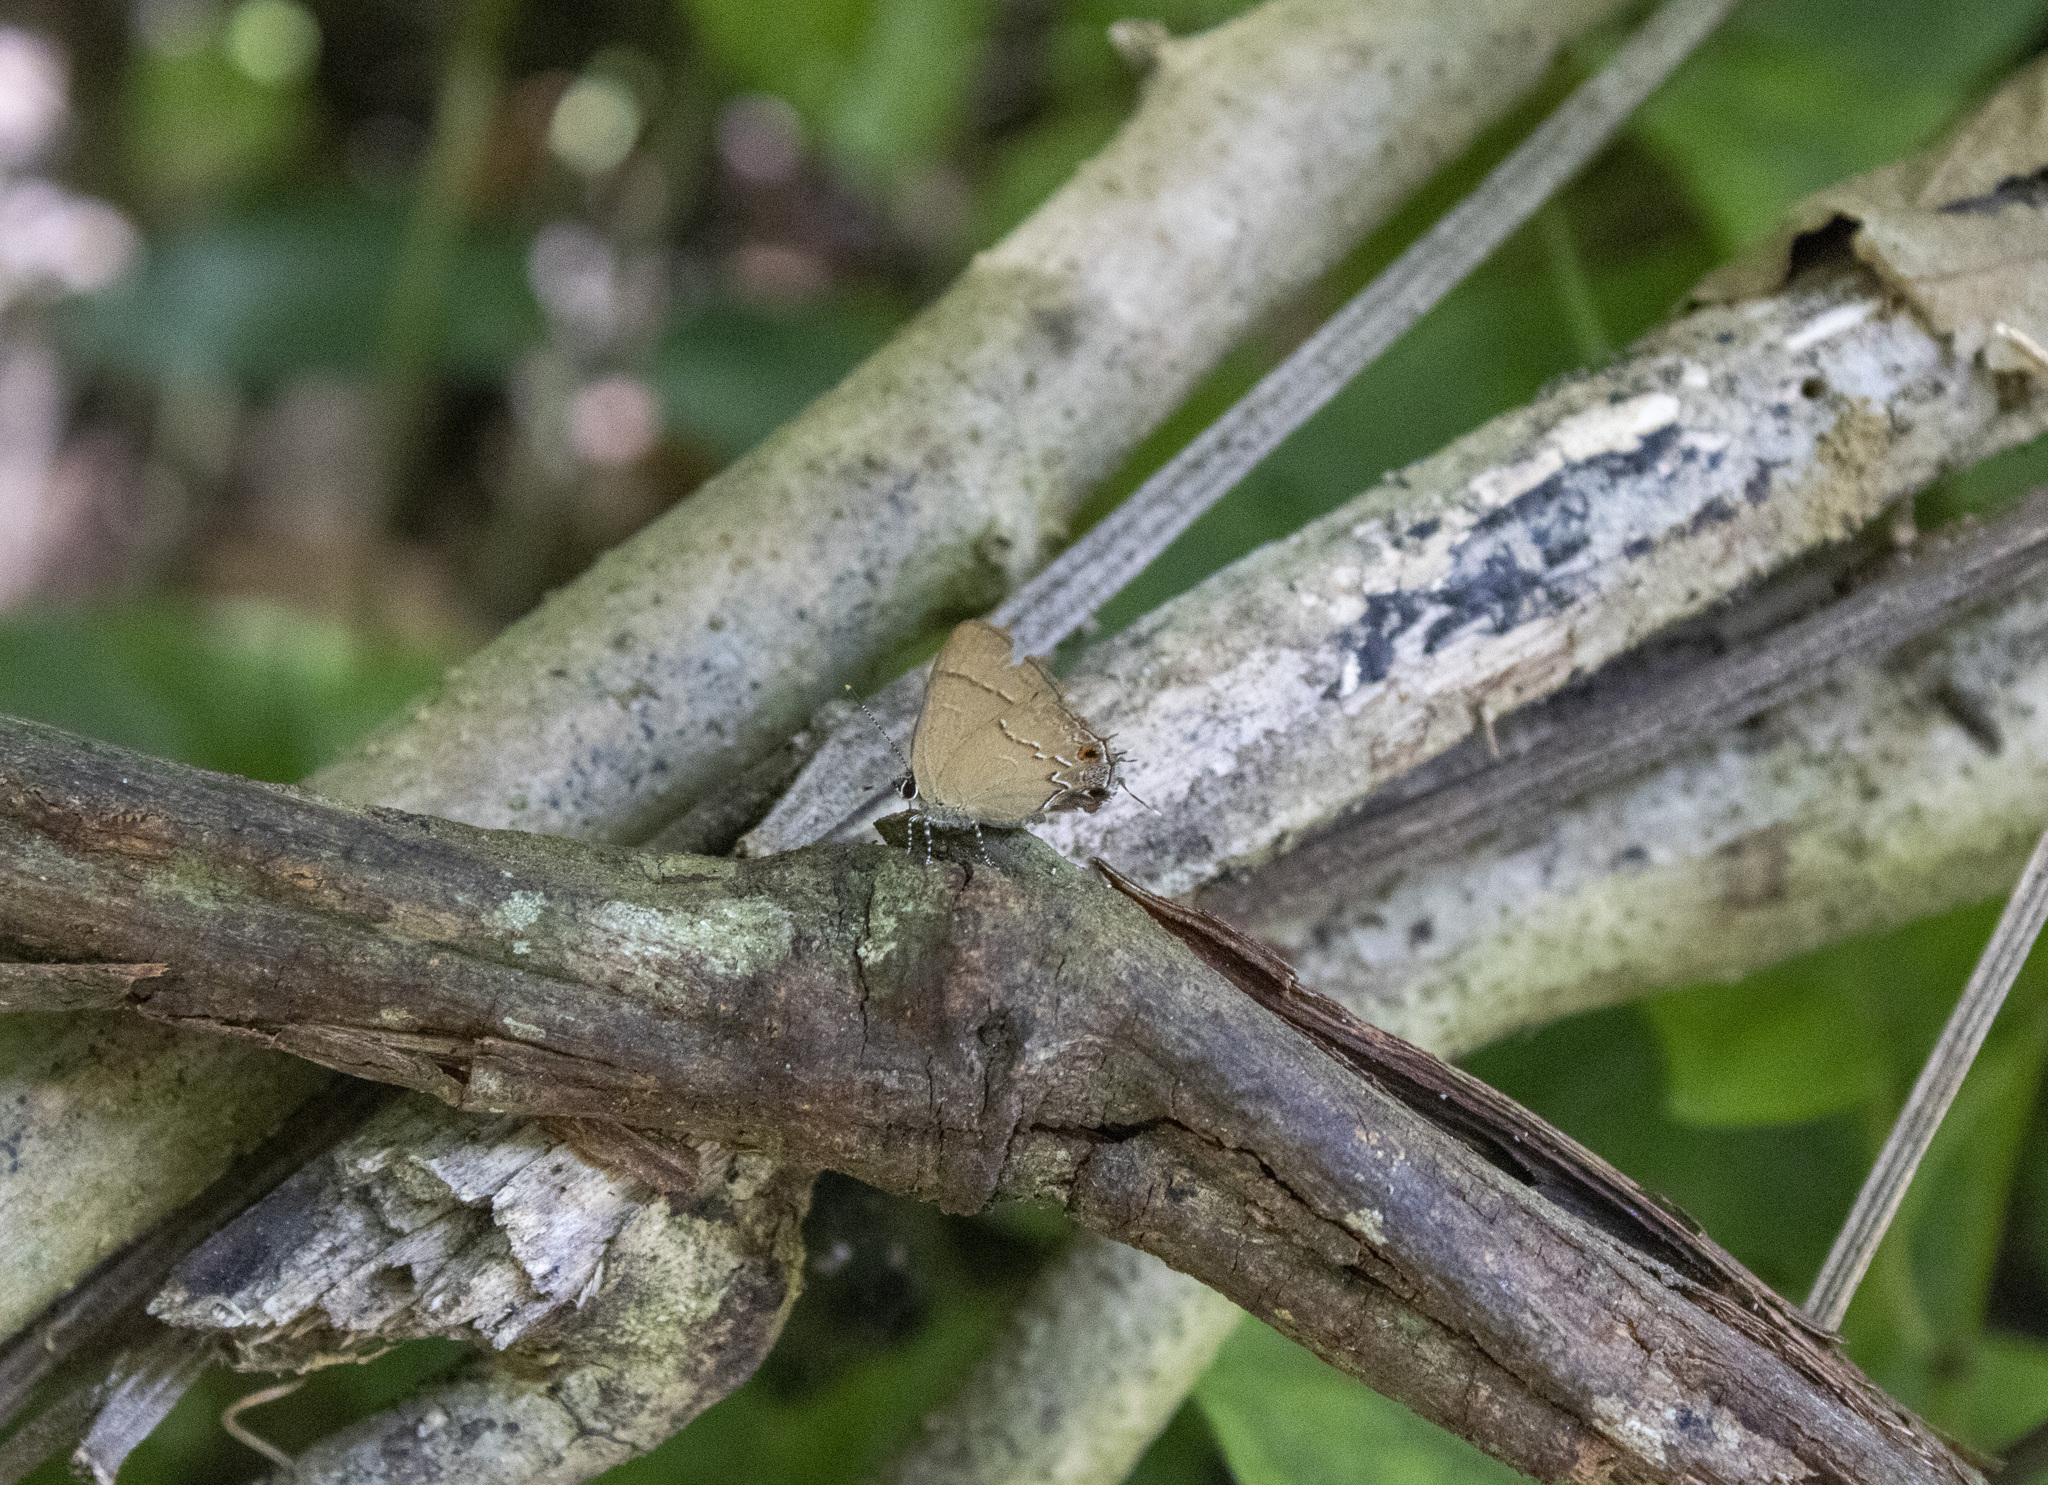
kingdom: Animalia
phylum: Arthropoda
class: Insecta
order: Lepidoptera
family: Lycaenidae
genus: Arzecla
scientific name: Arzecla
